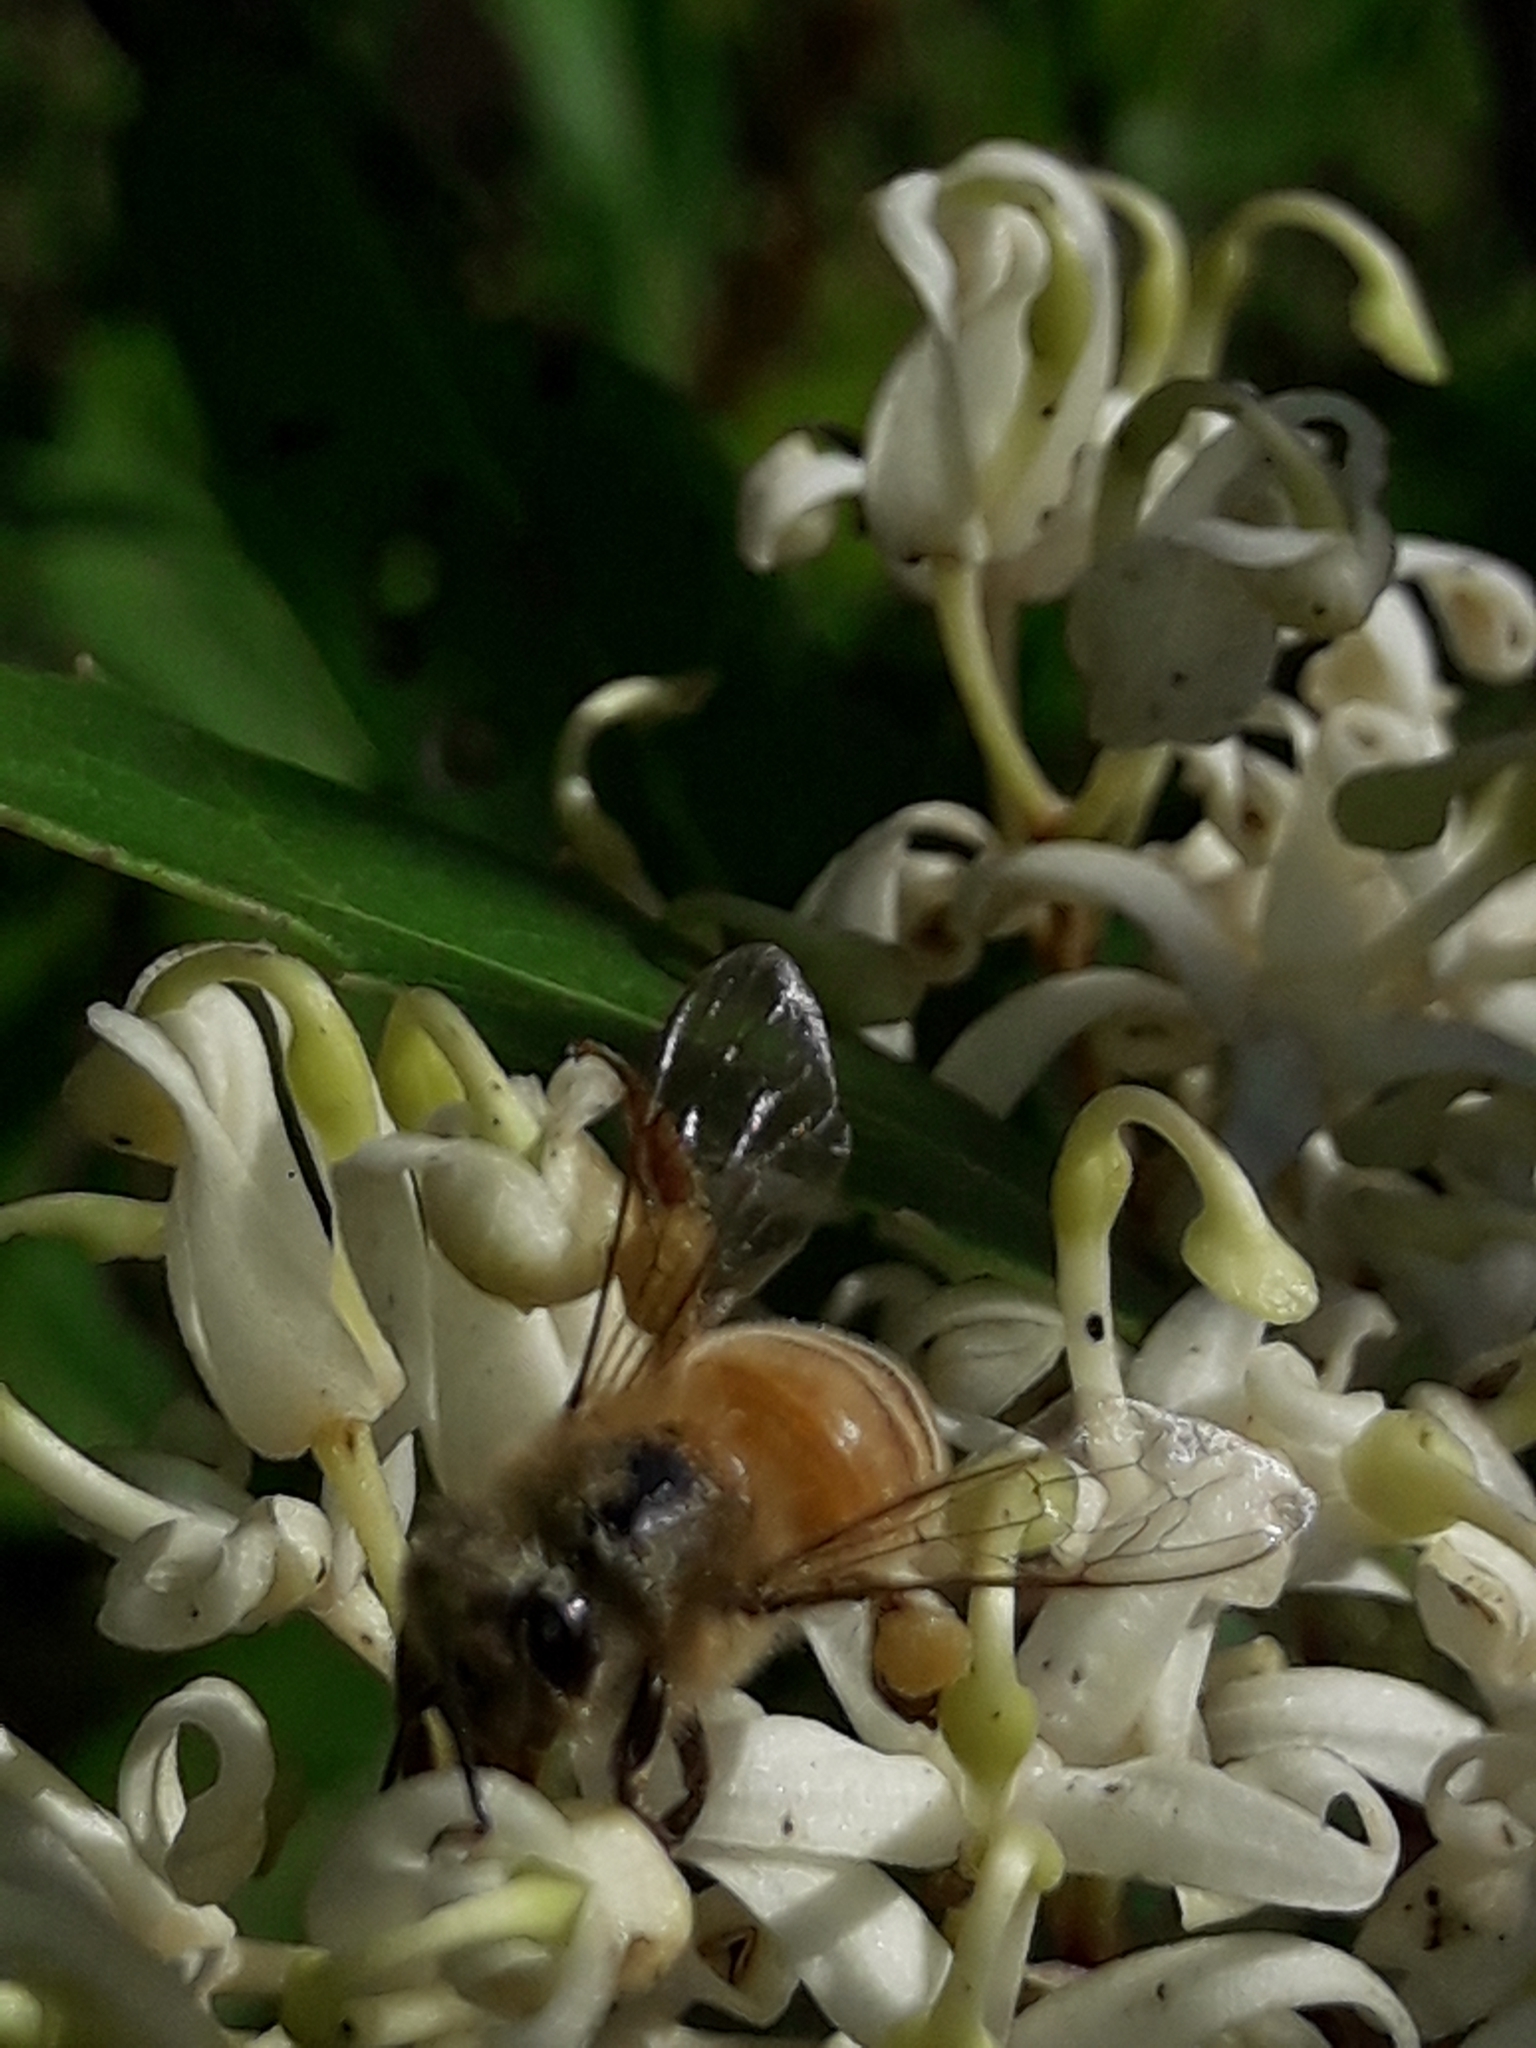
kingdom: Animalia
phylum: Arthropoda
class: Insecta
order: Hymenoptera
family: Apidae
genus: Apis
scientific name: Apis mellifera
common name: Honey bee
